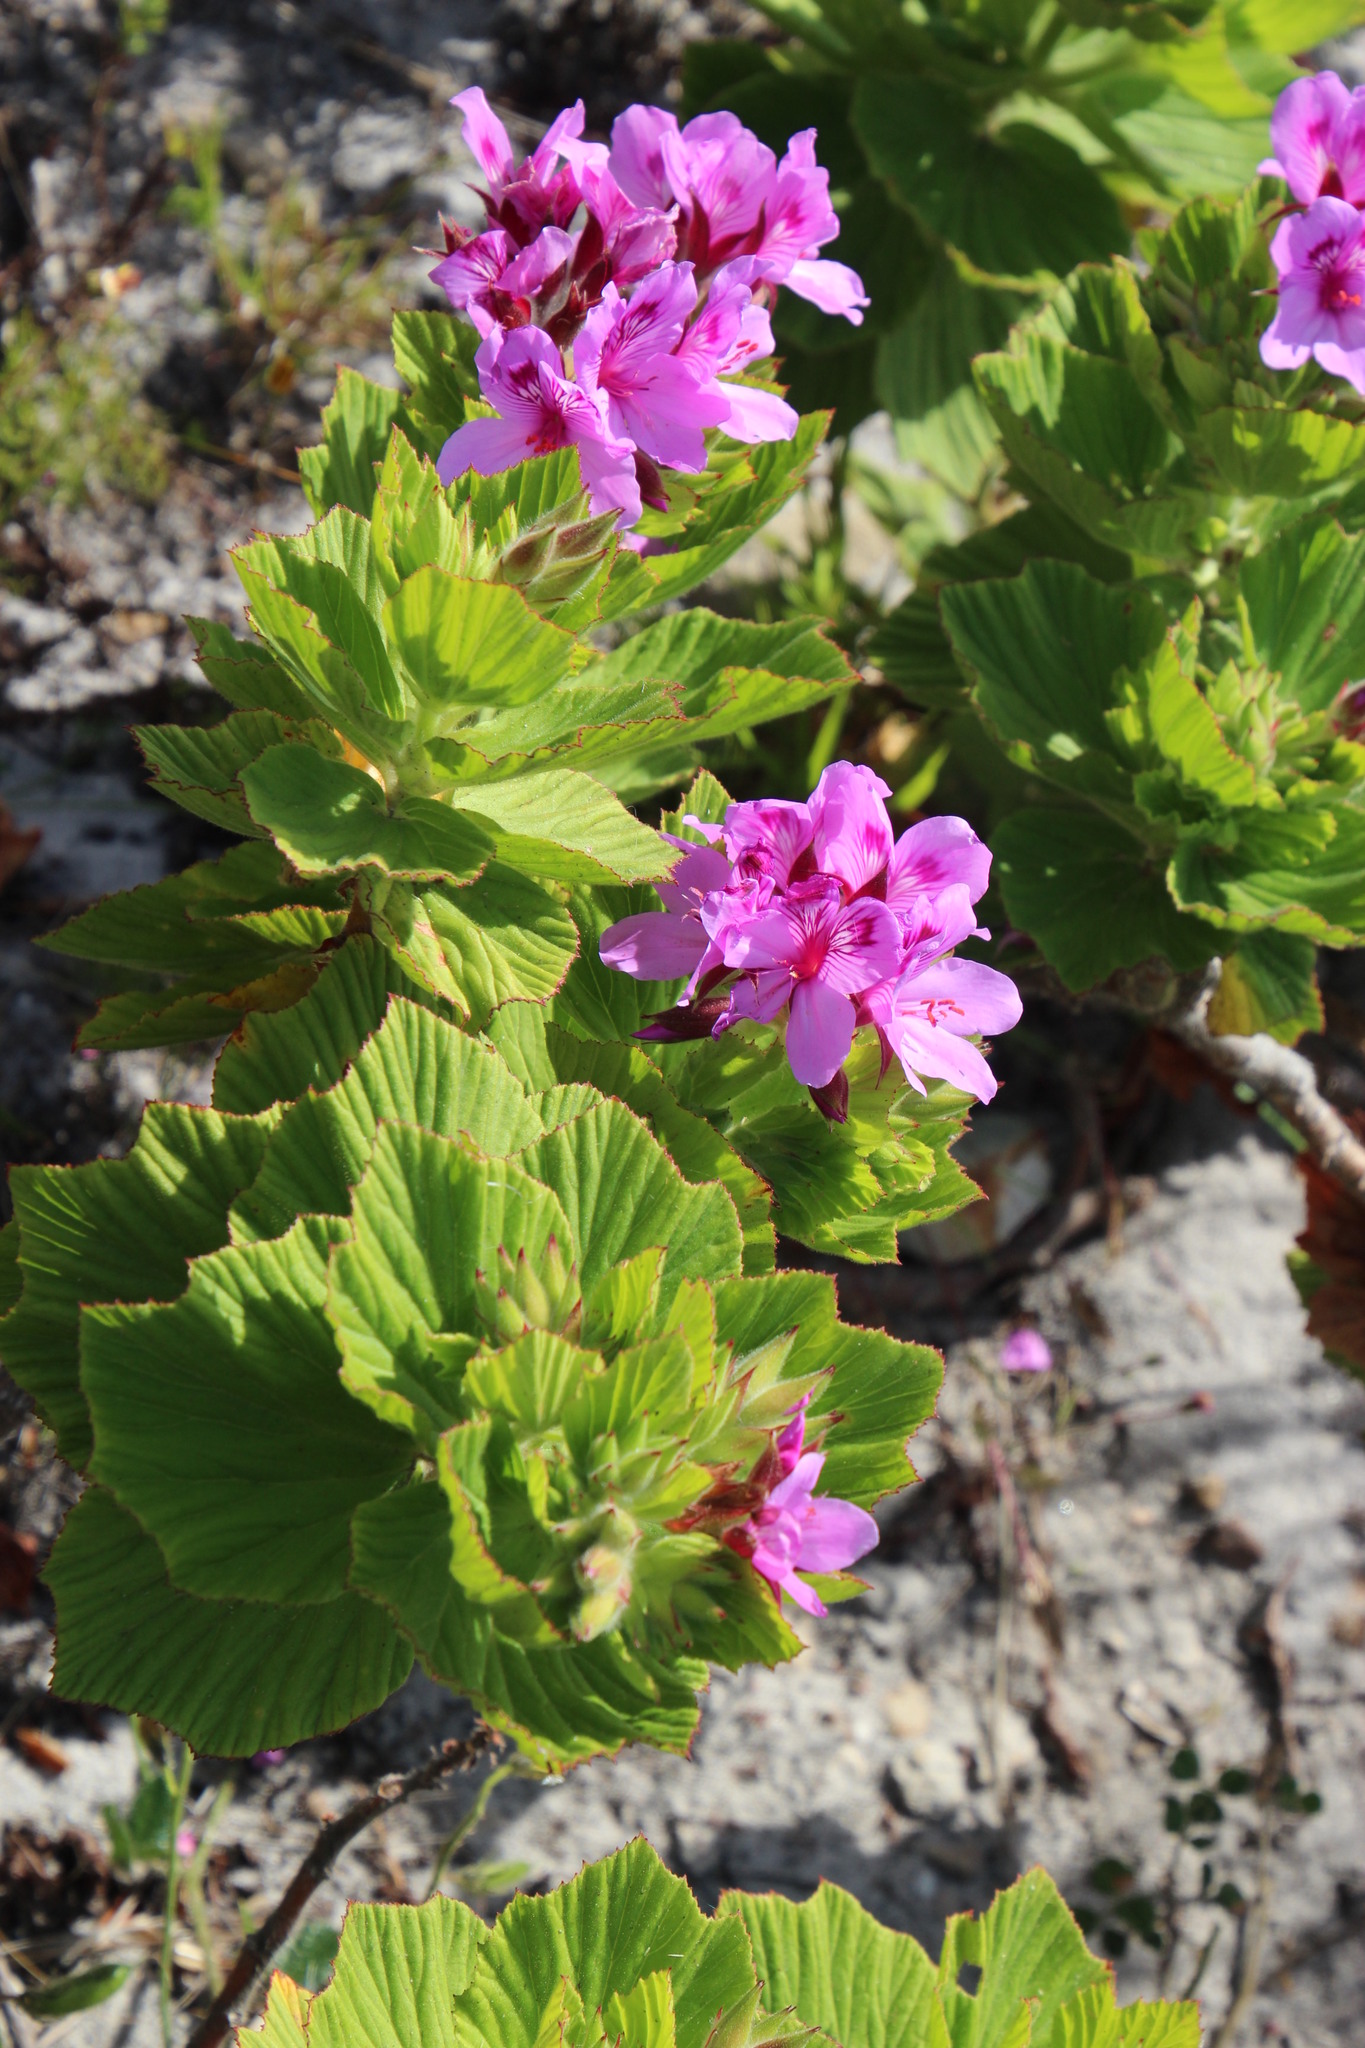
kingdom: Plantae
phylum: Tracheophyta
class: Magnoliopsida
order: Geraniales
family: Geraniaceae
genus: Pelargonium
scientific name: Pelargonium cucullatum
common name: Tree pelargonium
